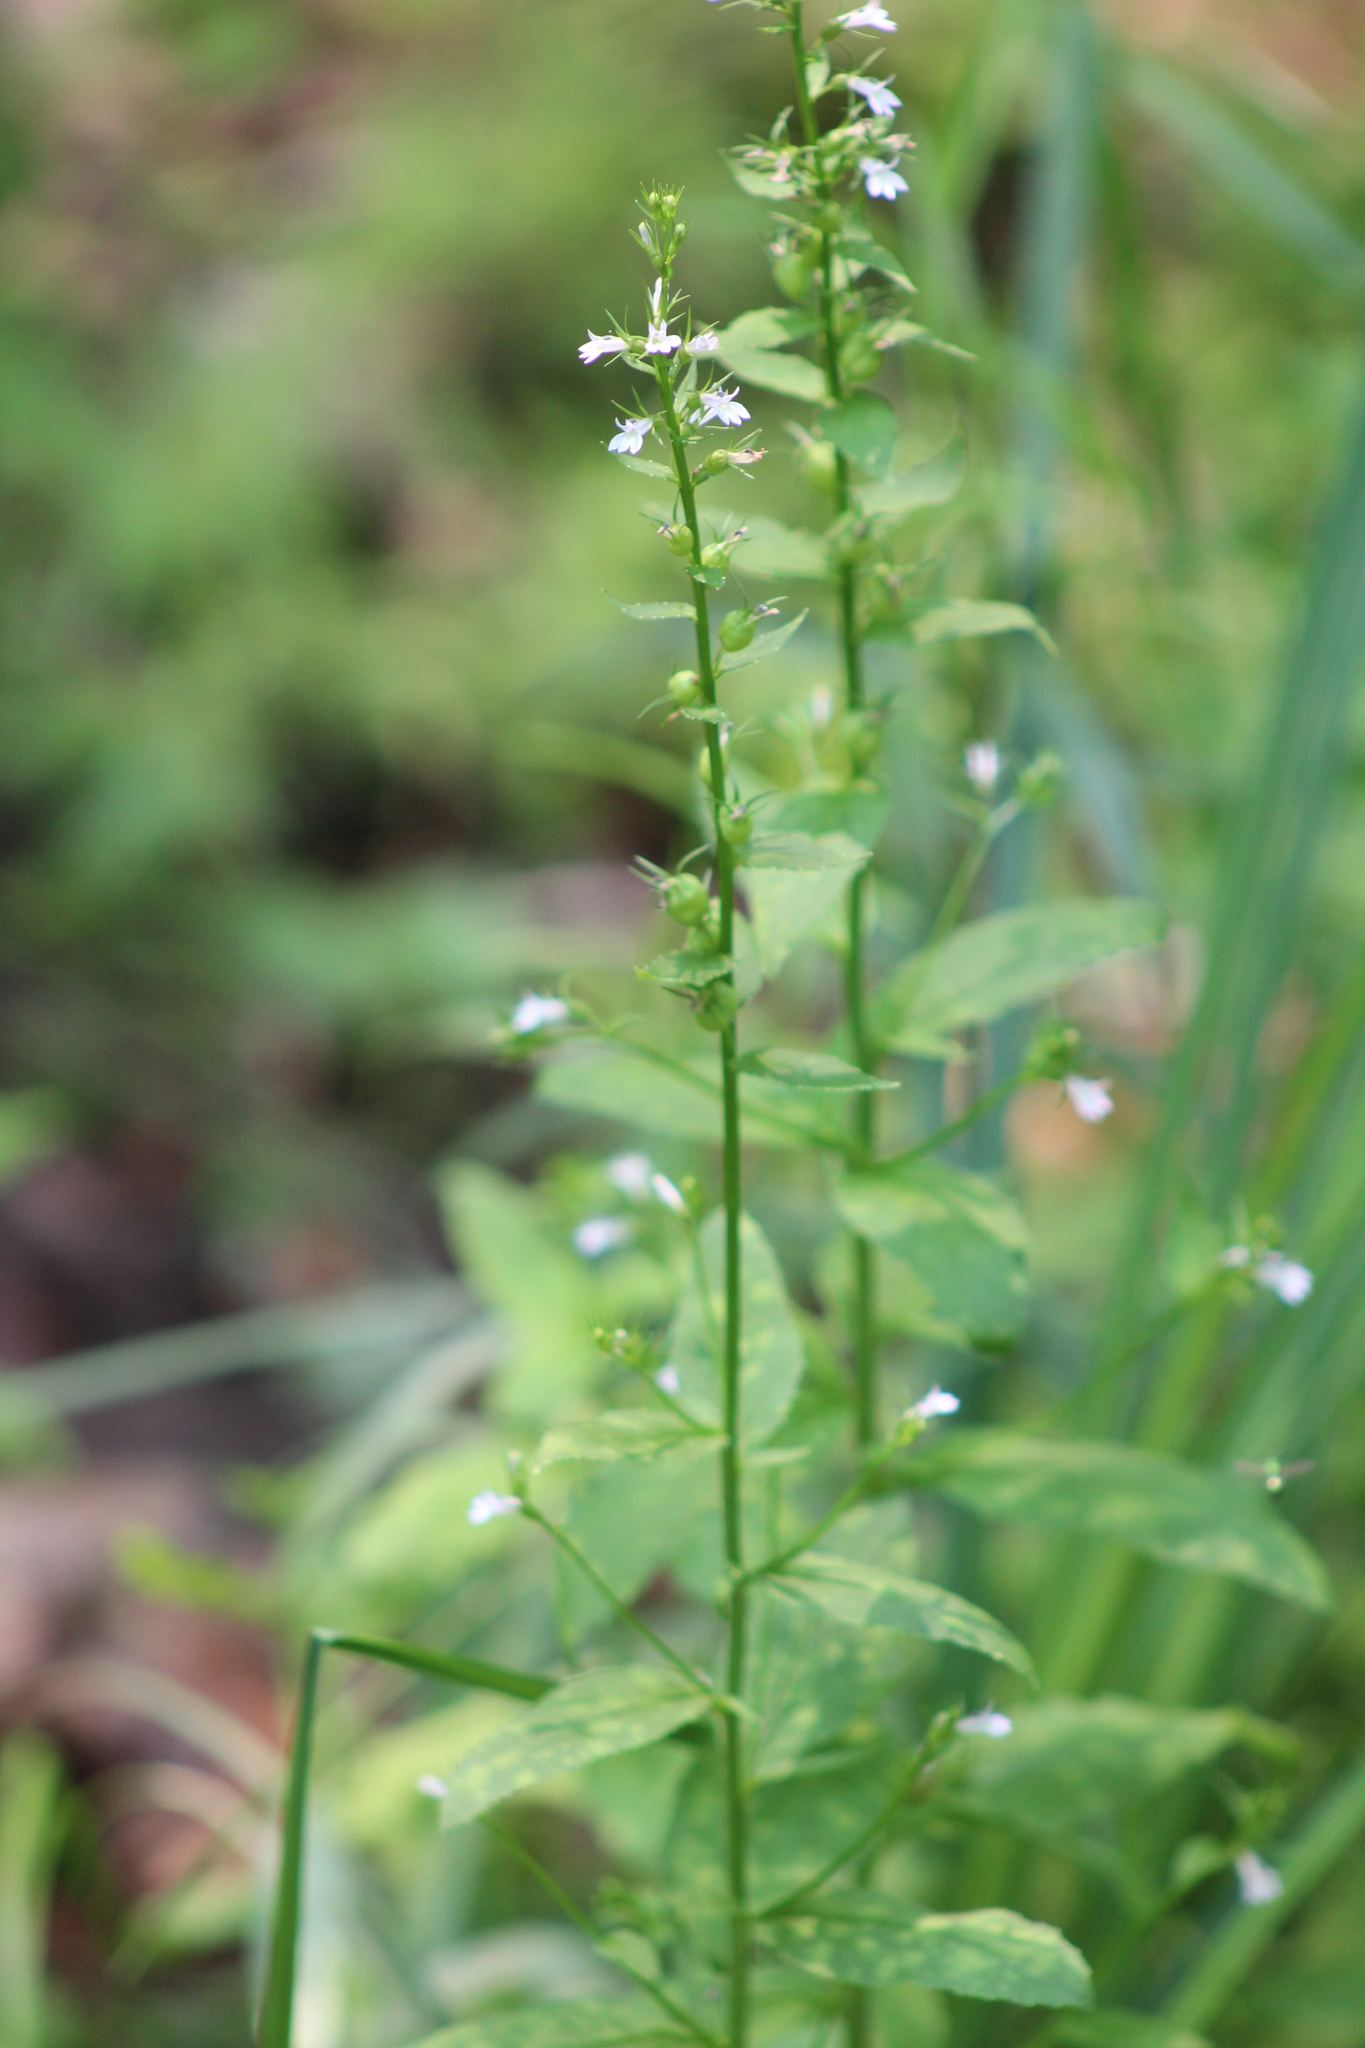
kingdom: Plantae
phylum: Tracheophyta
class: Magnoliopsida
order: Asterales
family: Campanulaceae
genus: Lobelia
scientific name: Lobelia inflata
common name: Indian tobacco
